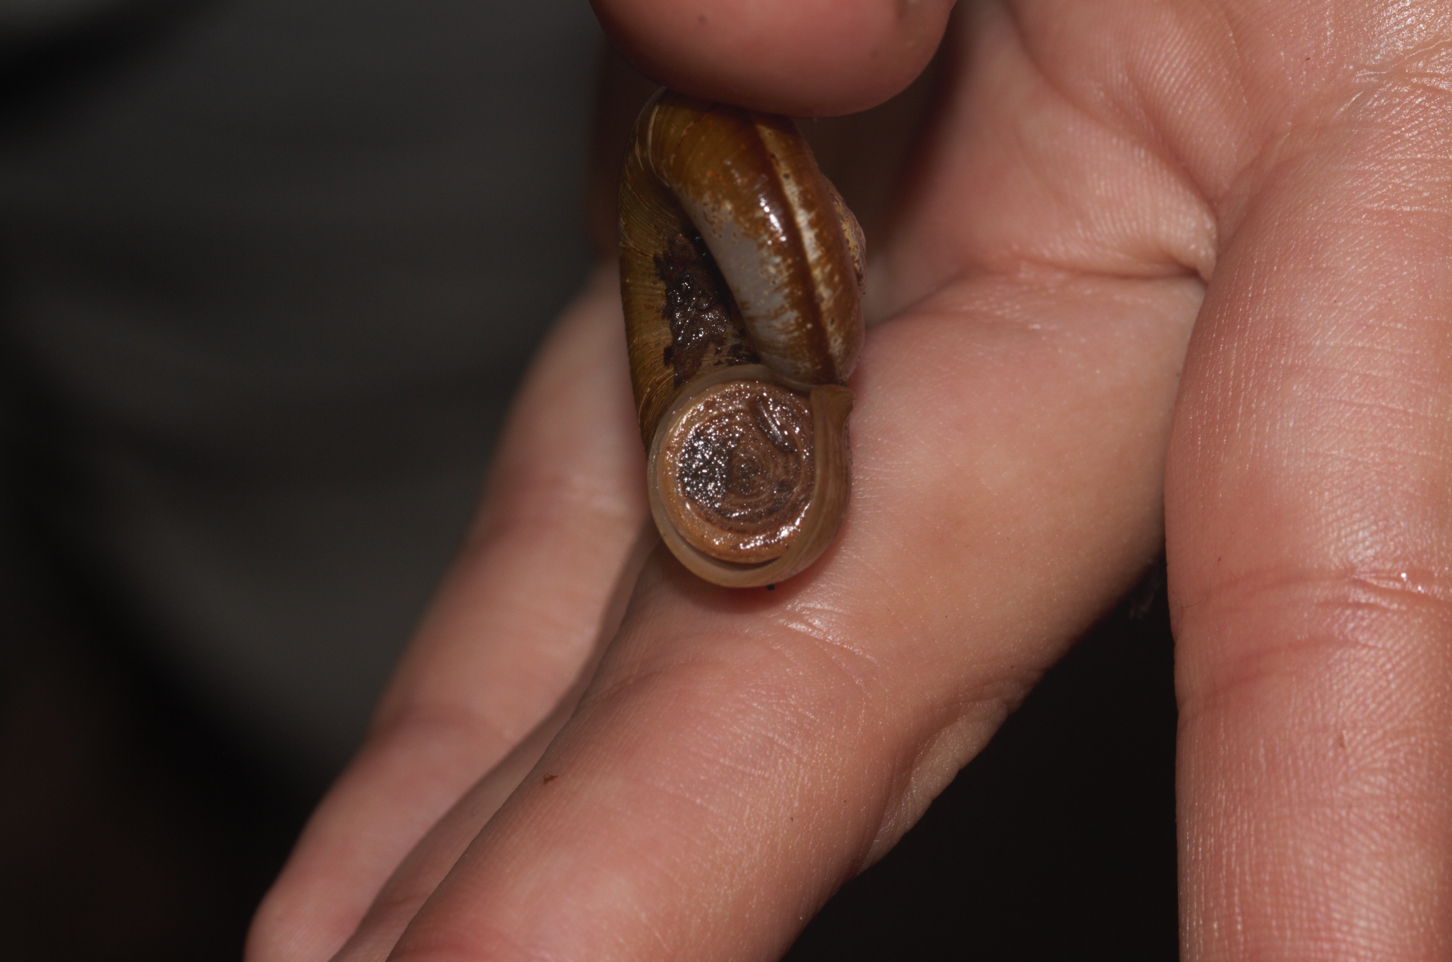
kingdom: Animalia
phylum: Mollusca
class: Gastropoda
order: Architaenioglossa
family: Neocyclotidae
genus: Incidostoma
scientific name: Incidostoma pari
